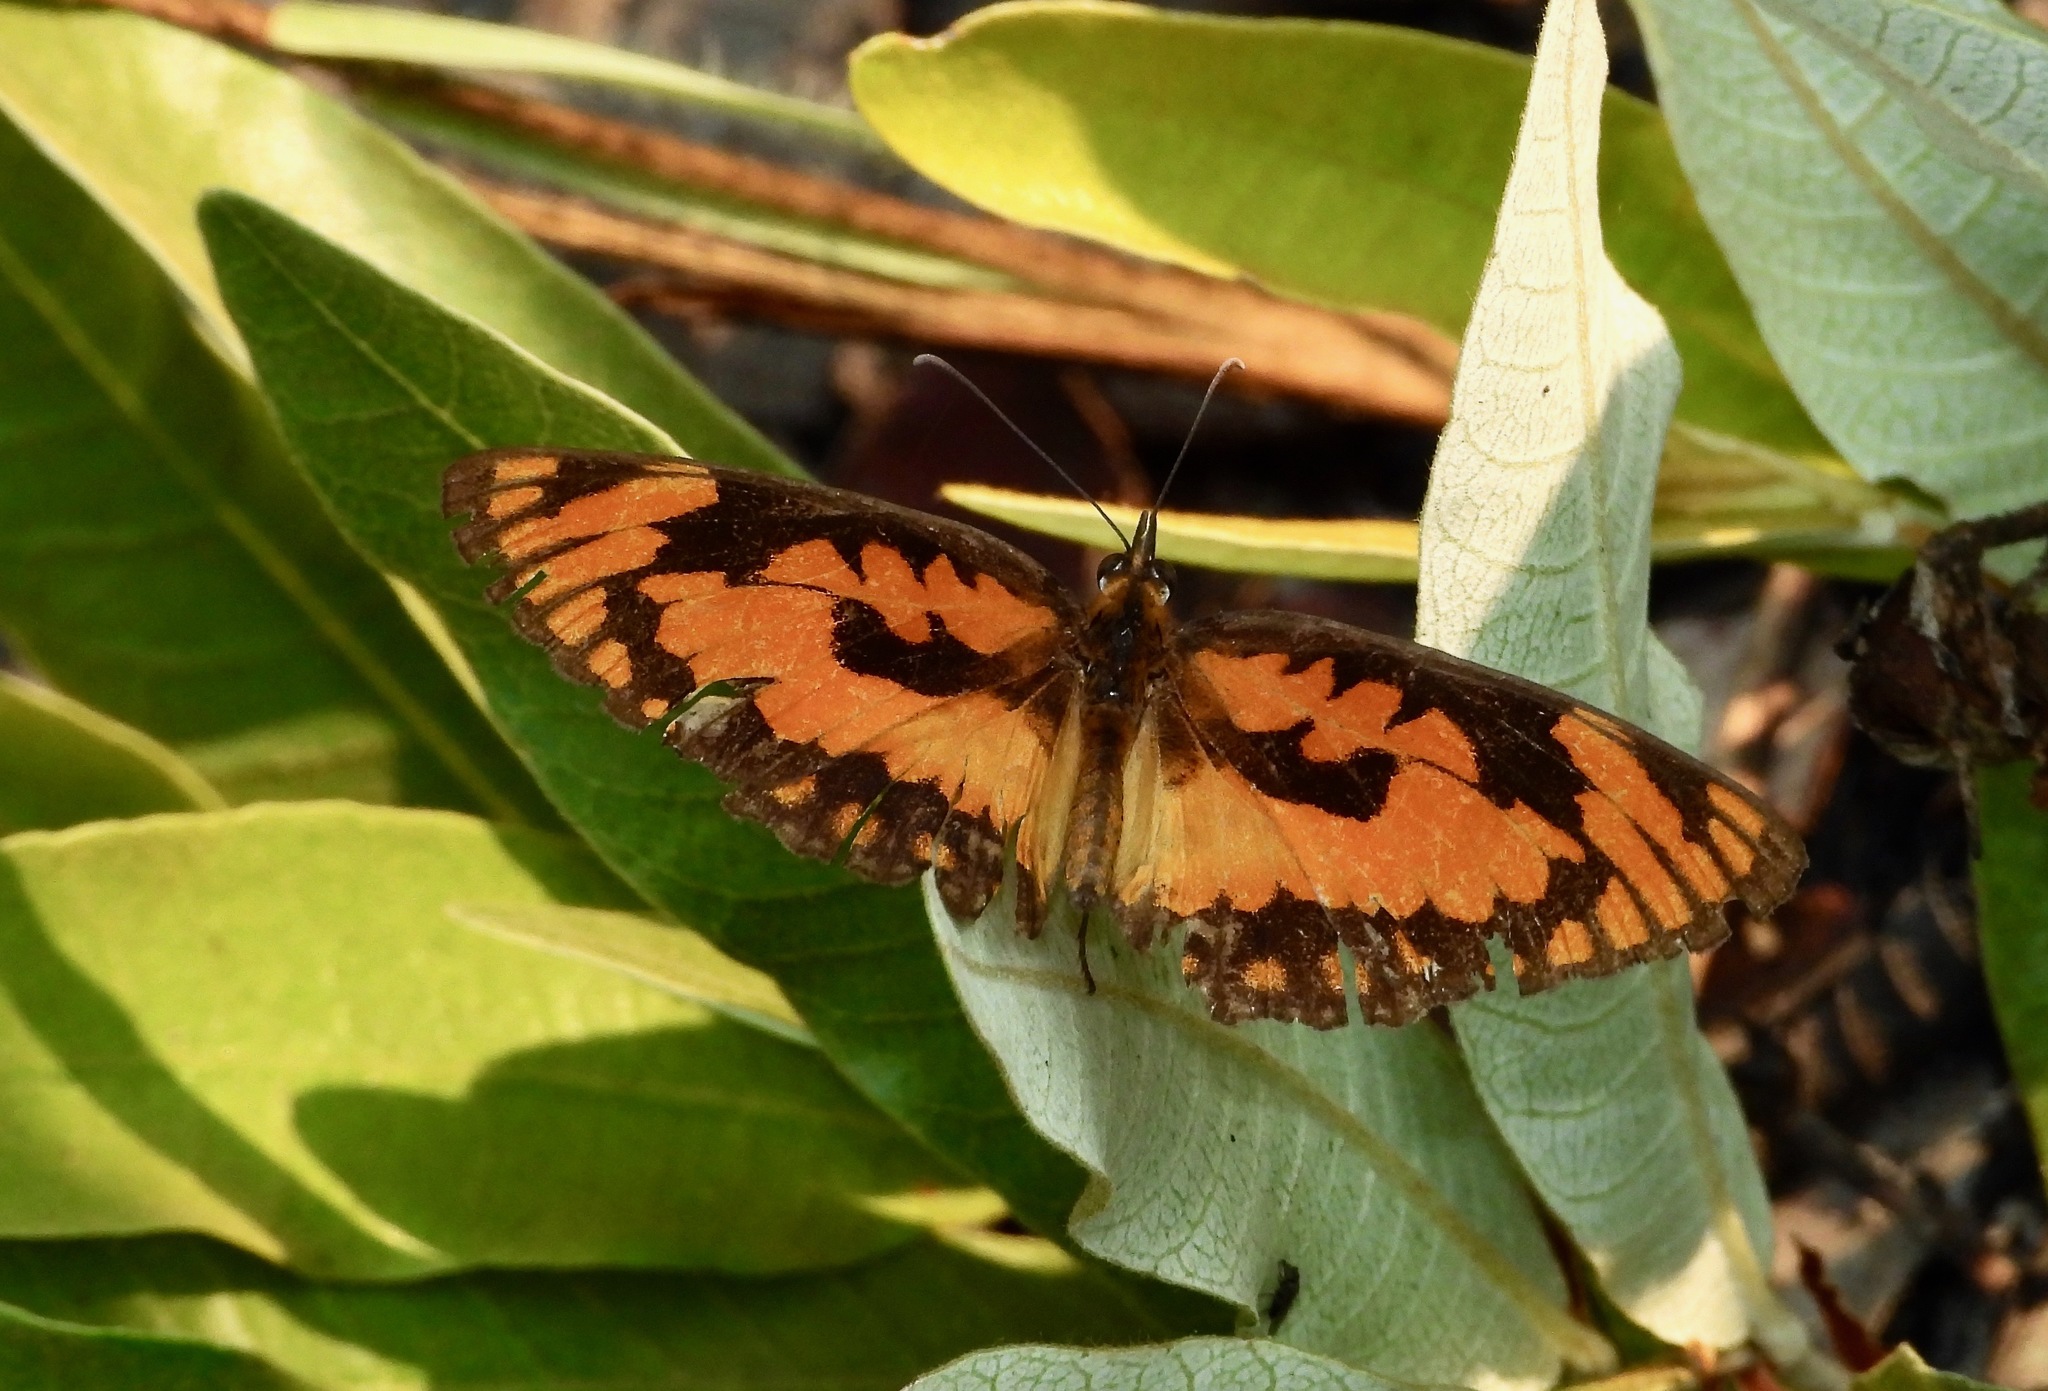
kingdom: Animalia
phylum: Arthropoda
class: Insecta
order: Lepidoptera
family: Nymphalidae
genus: Byblia
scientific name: Byblia anvatara
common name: African joker
